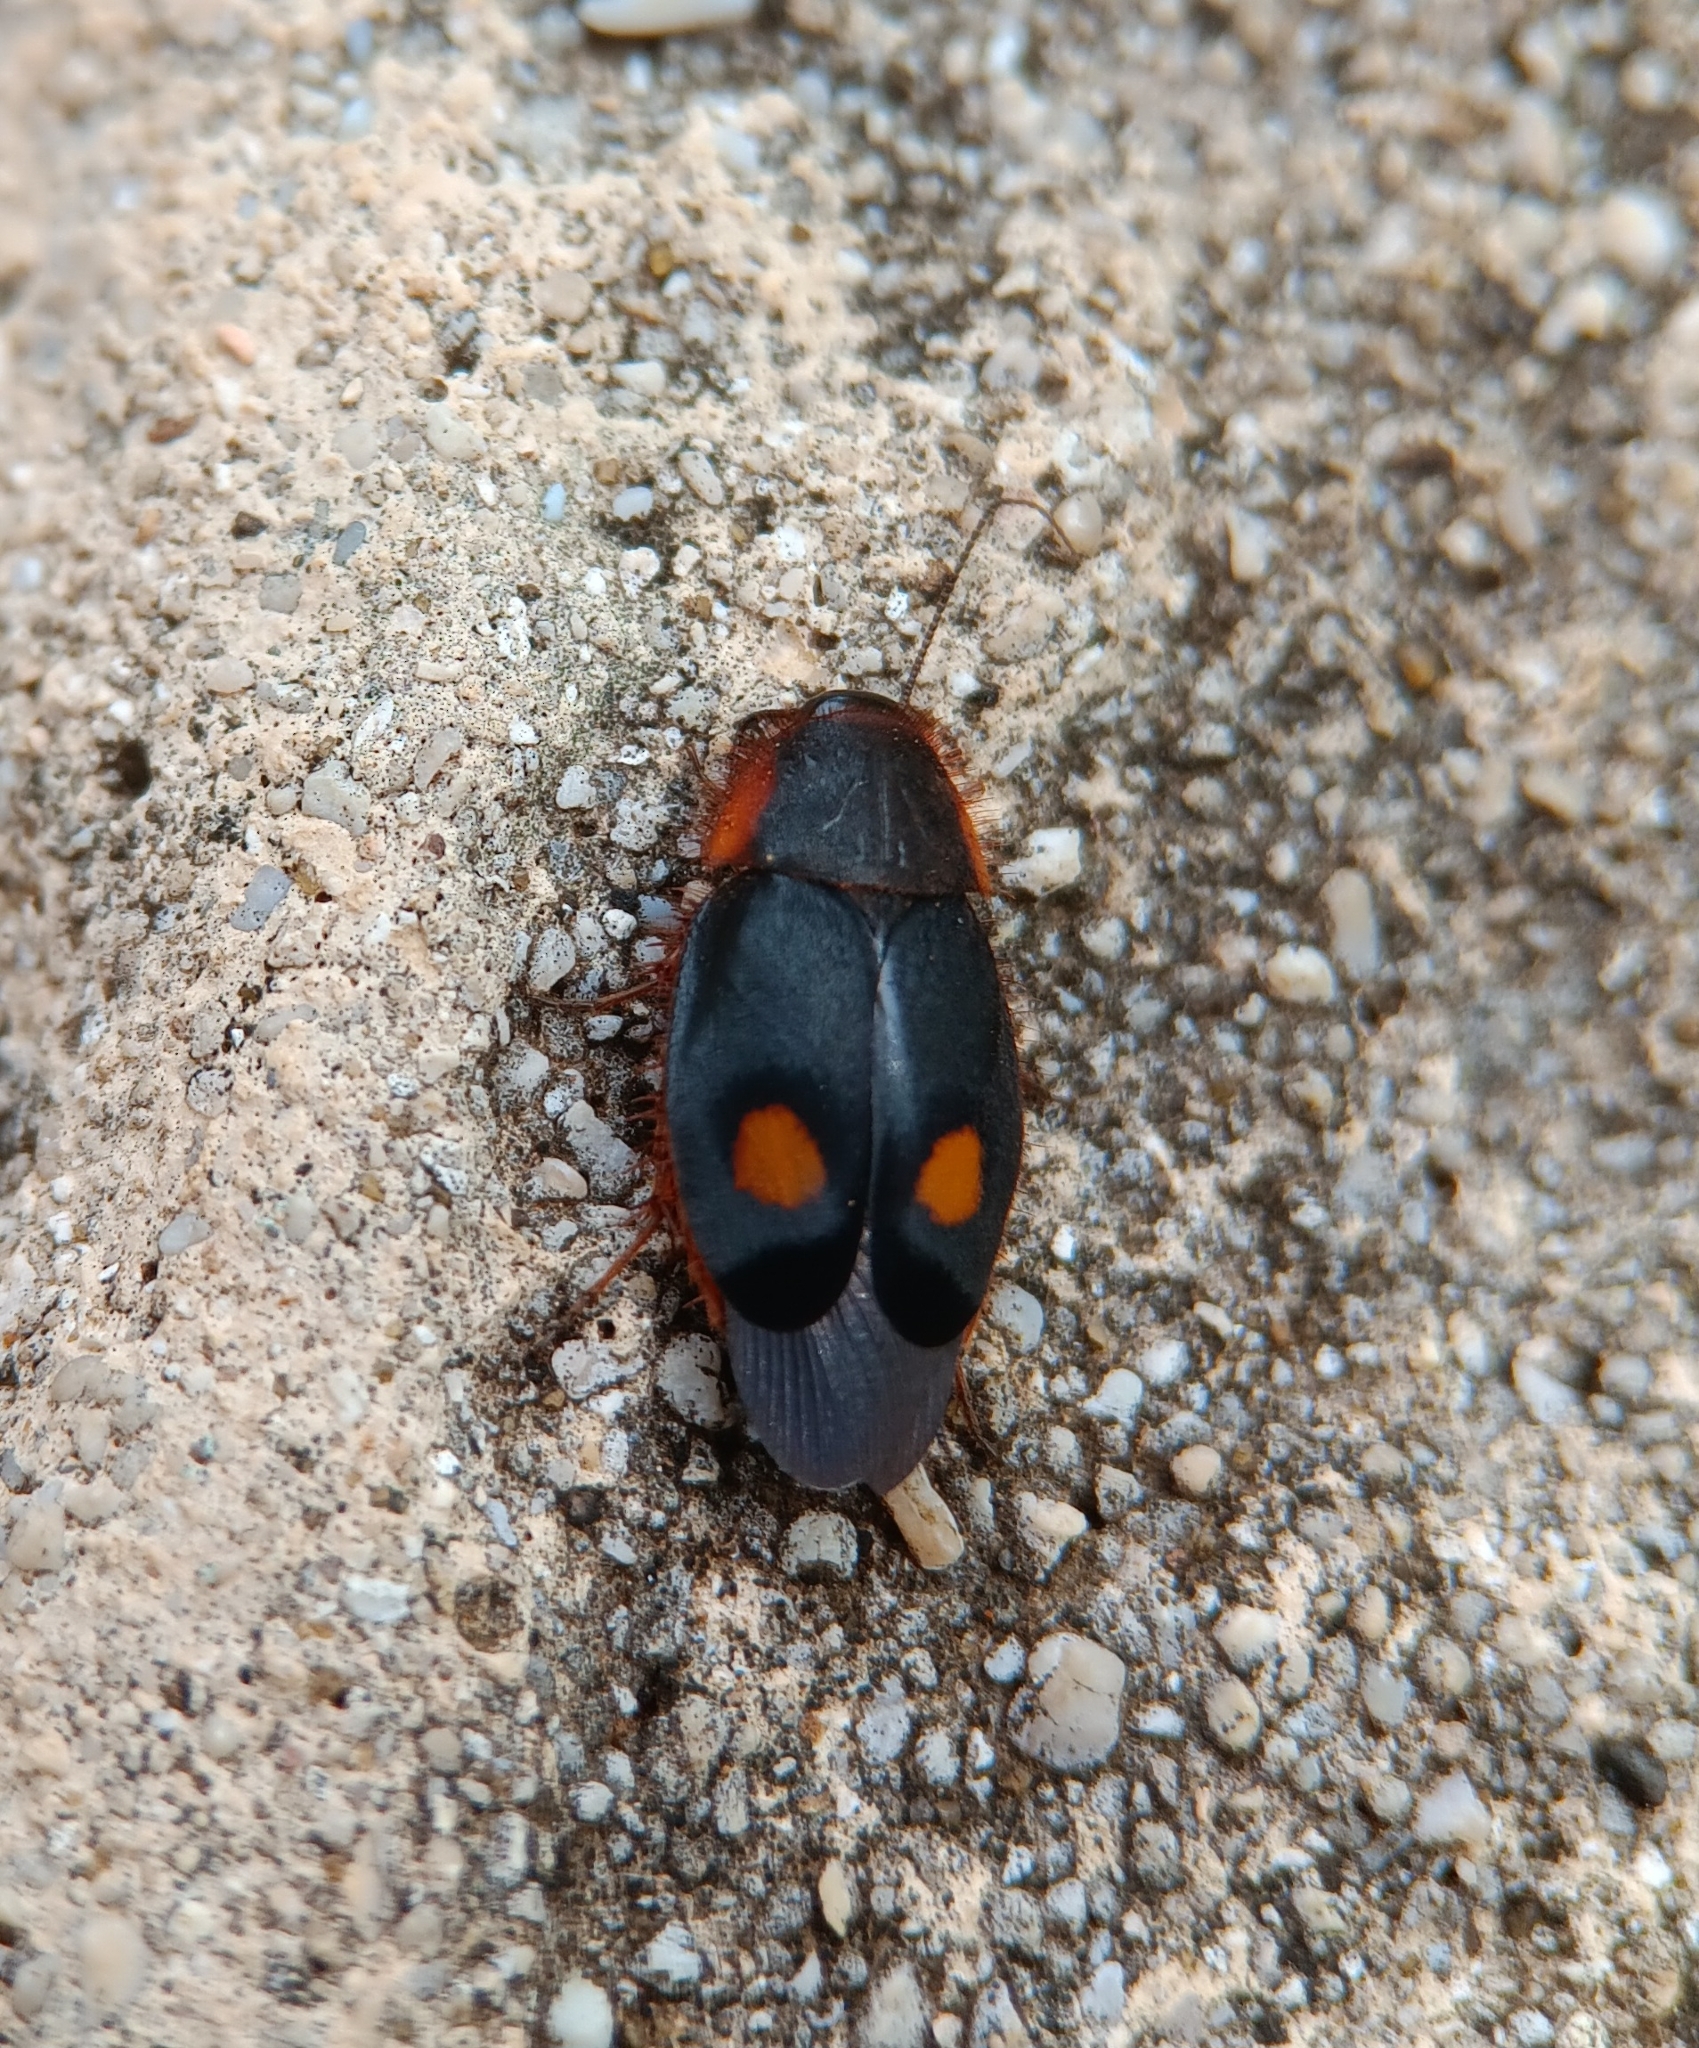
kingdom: Animalia
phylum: Arthropoda
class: Insecta
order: Blattodea
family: Corydiidae
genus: Euthyrrhapha
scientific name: Euthyrrhapha pacifica
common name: Pacific cockroach
